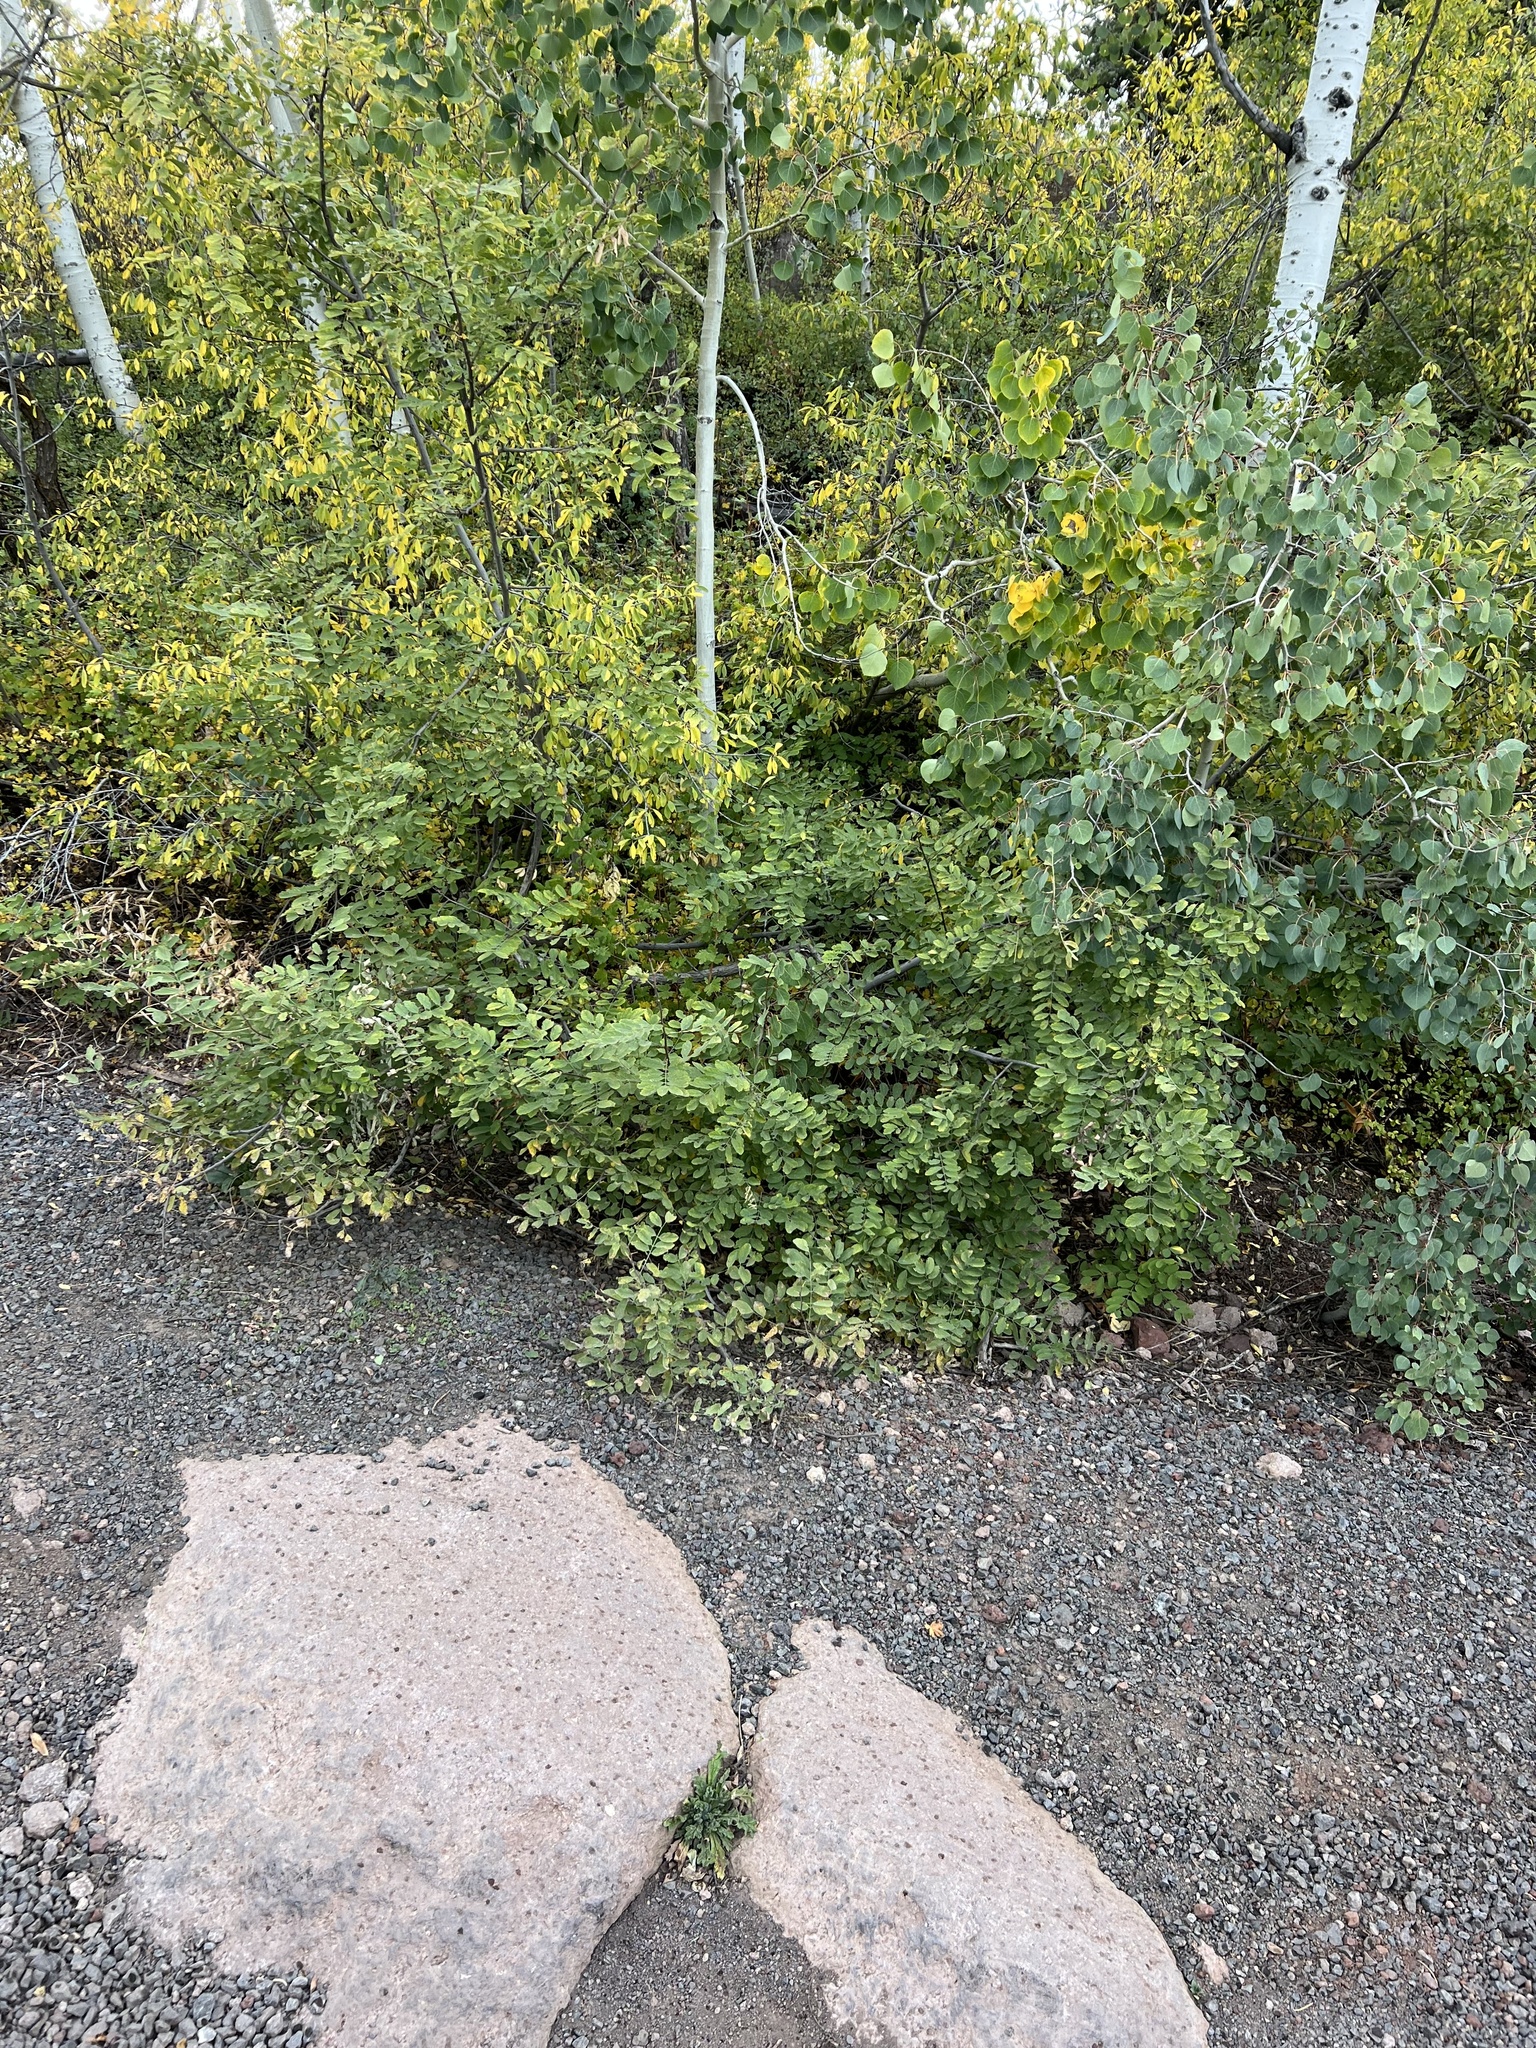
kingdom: Plantae
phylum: Tracheophyta
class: Magnoliopsida
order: Fabales
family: Fabaceae
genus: Robinia
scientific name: Robinia neomexicana
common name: New mexico locust
